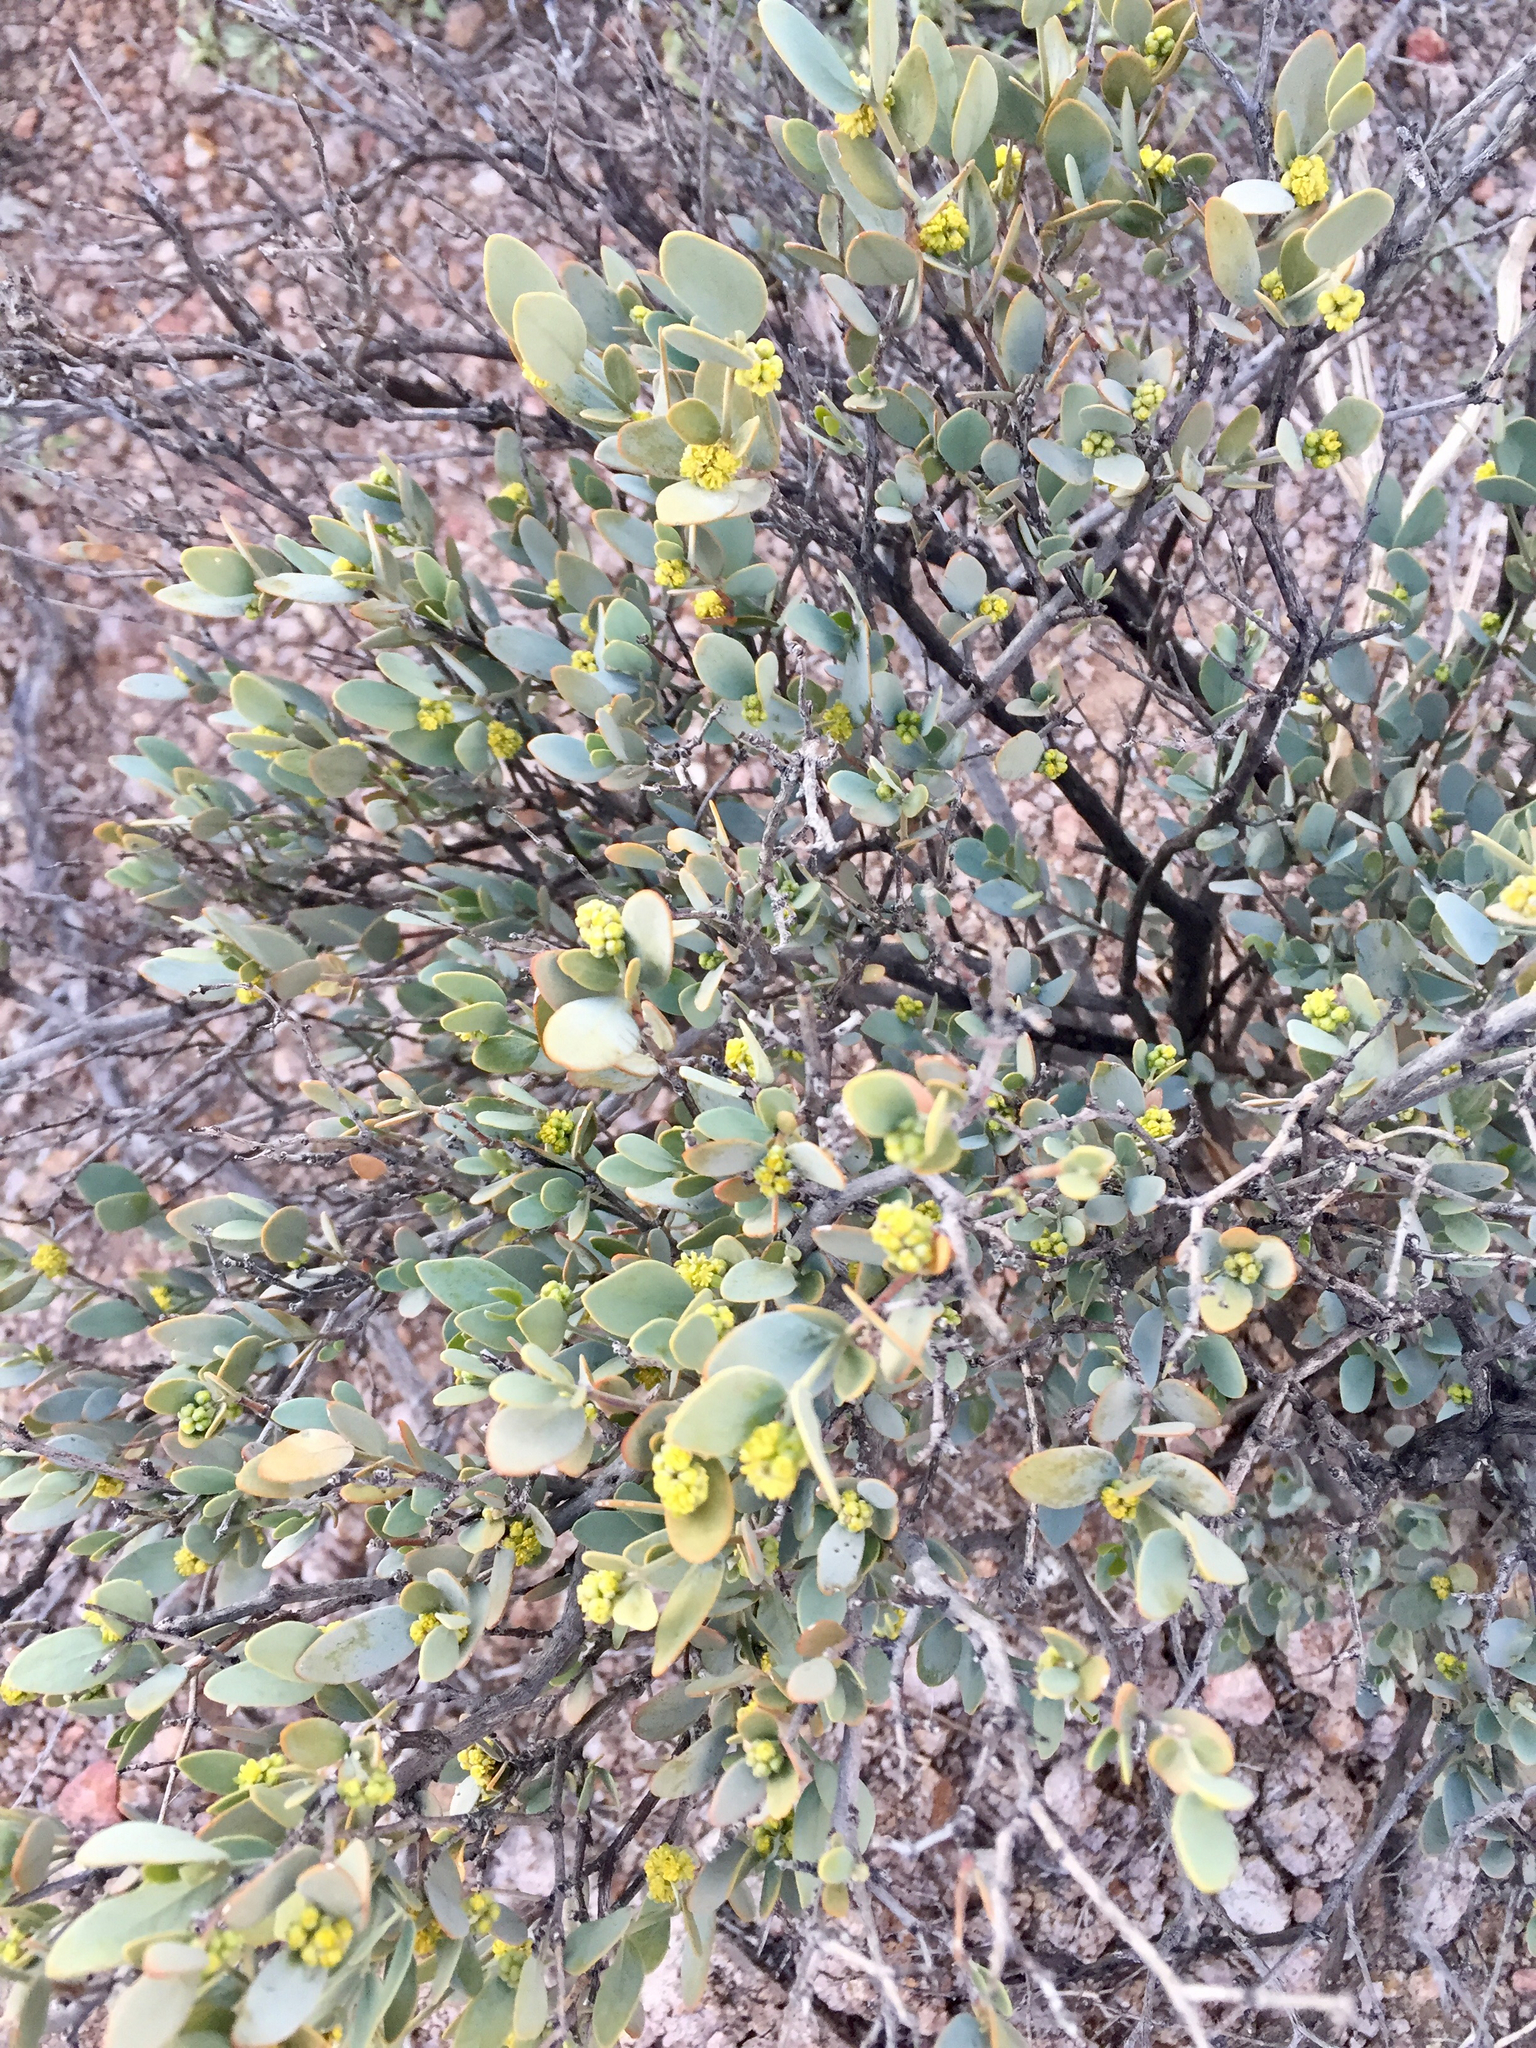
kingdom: Plantae
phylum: Tracheophyta
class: Magnoliopsida
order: Caryophyllales
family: Simmondsiaceae
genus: Simmondsia
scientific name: Simmondsia chinensis
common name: Jojoba
